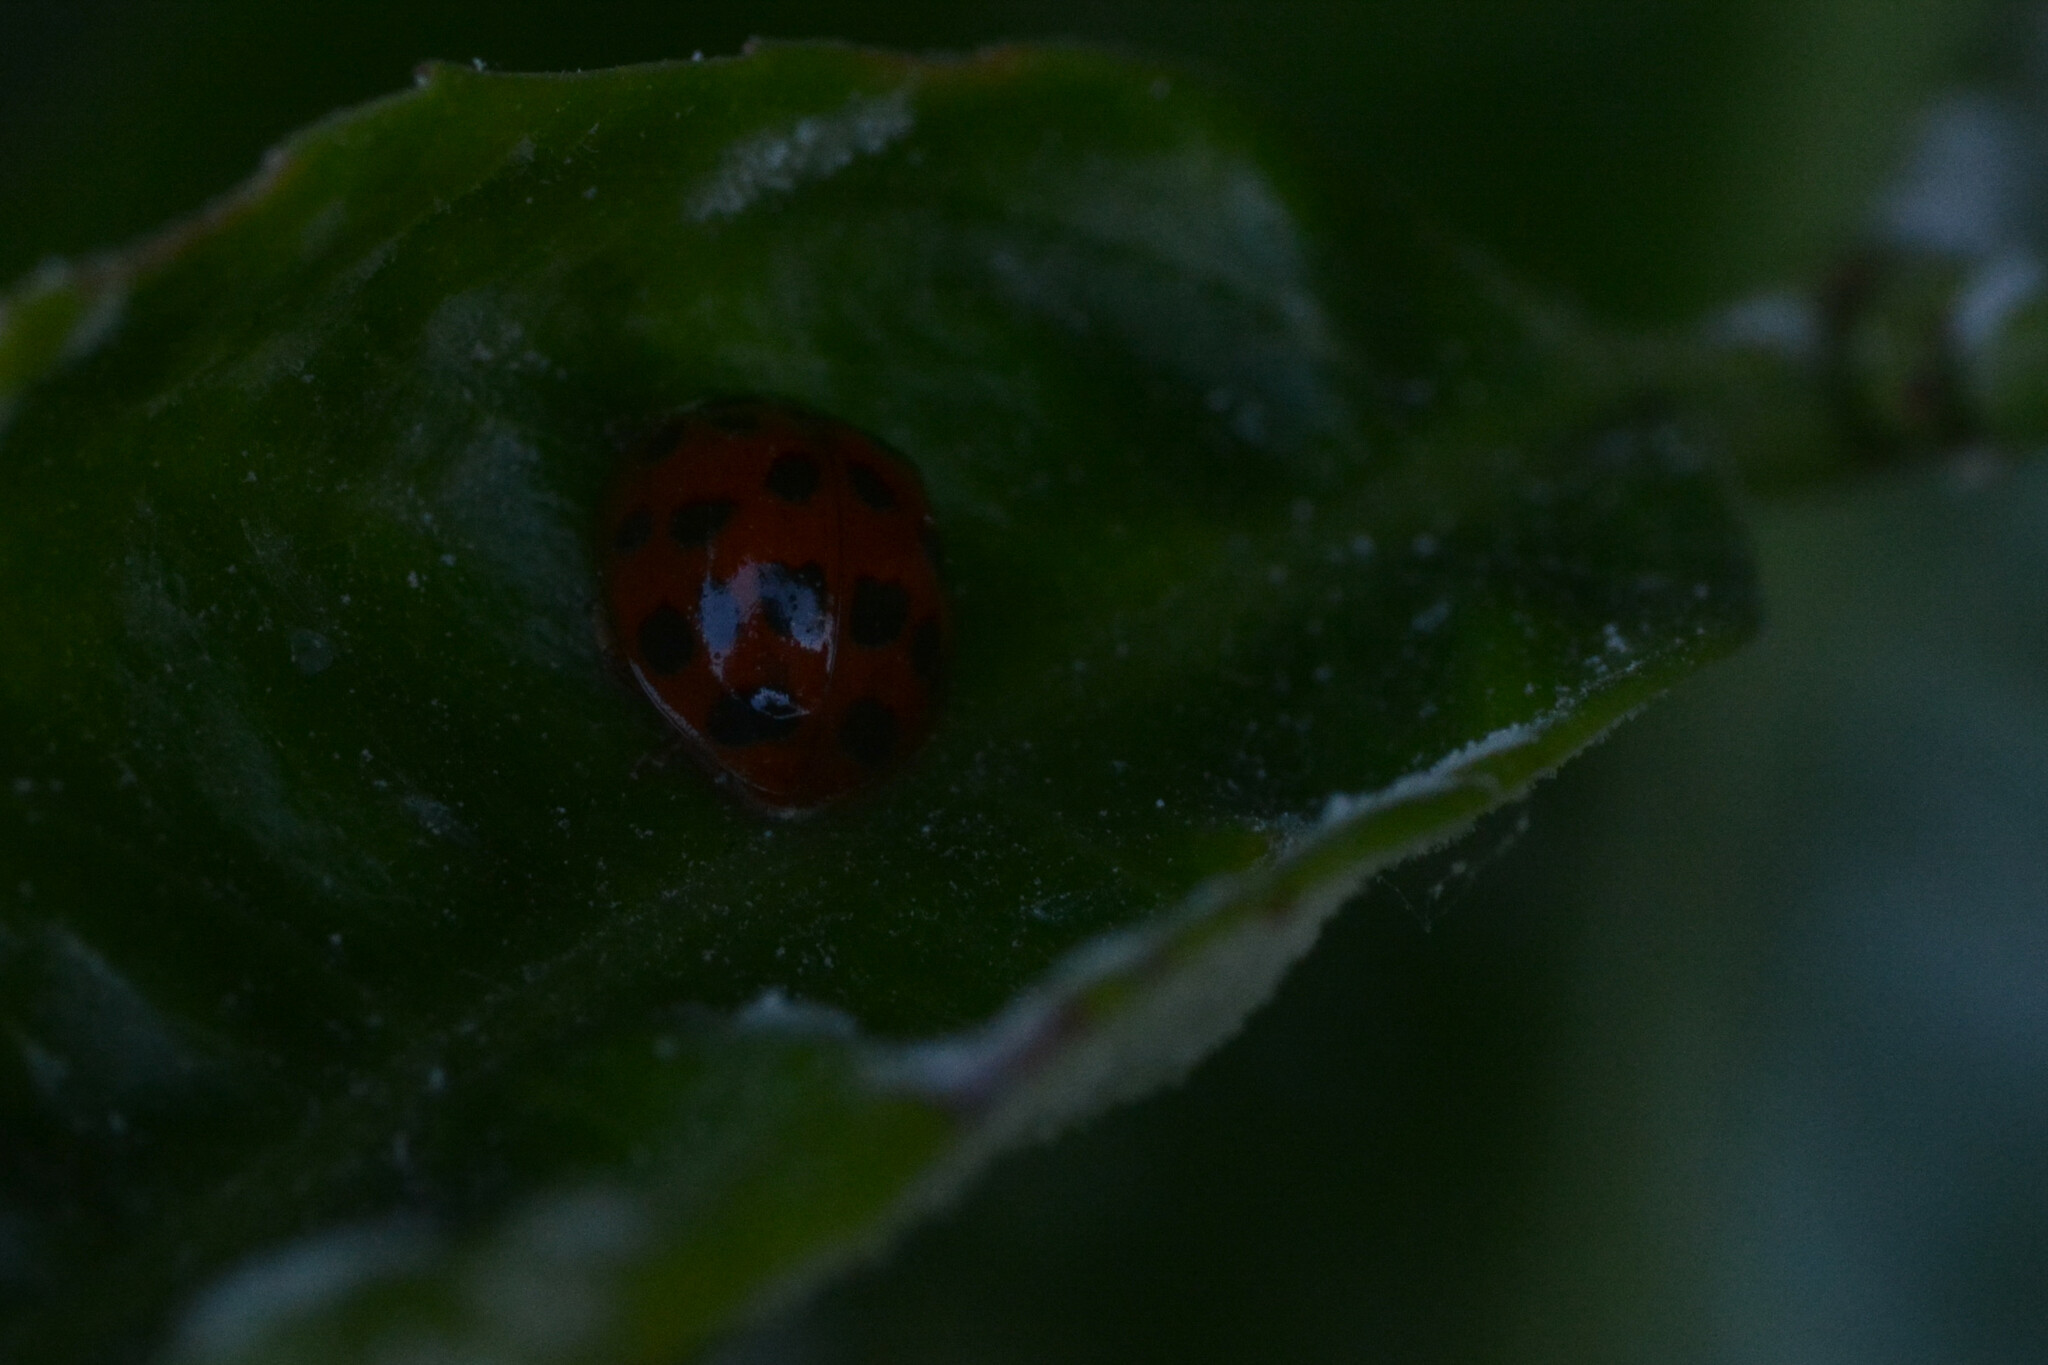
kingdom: Animalia
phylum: Arthropoda
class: Insecta
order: Coleoptera
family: Coccinellidae
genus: Harmonia
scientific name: Harmonia axyridis
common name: Harlequin ladybird
